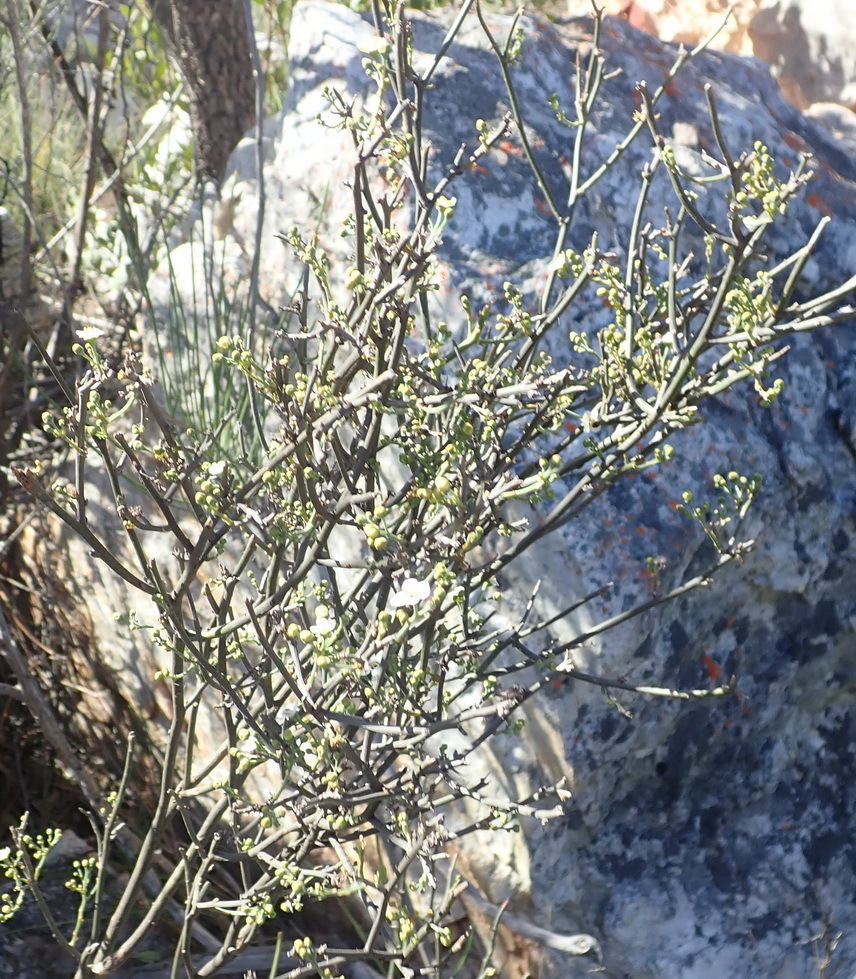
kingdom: Plantae
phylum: Tracheophyta
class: Magnoliopsida
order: Solanales
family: Montiniaceae
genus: Montinia
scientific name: Montinia caryophyllacea
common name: Wild clove-bush
